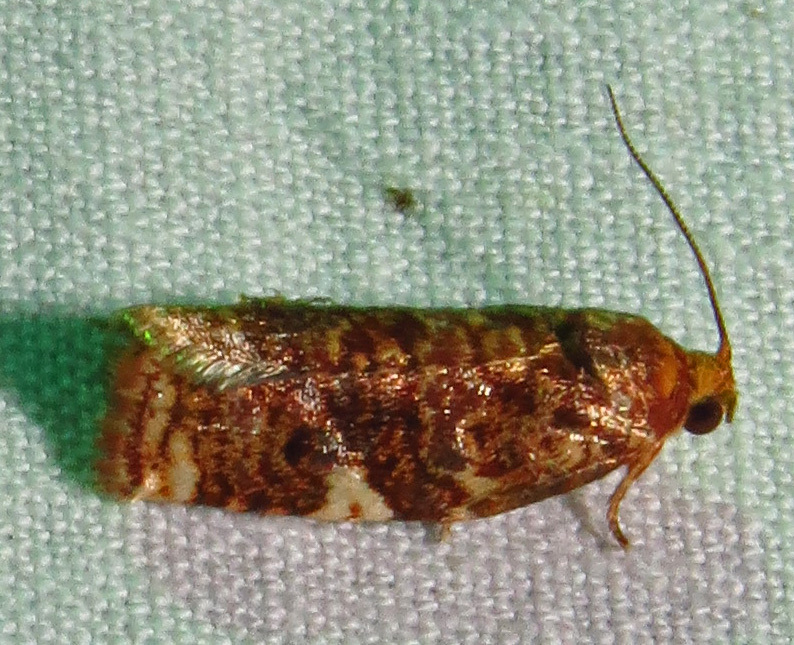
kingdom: Animalia
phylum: Arthropoda
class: Insecta
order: Lepidoptera
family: Tortricidae
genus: Archips
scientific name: Archips argyrospila
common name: Fruit-tree leafroller moth
